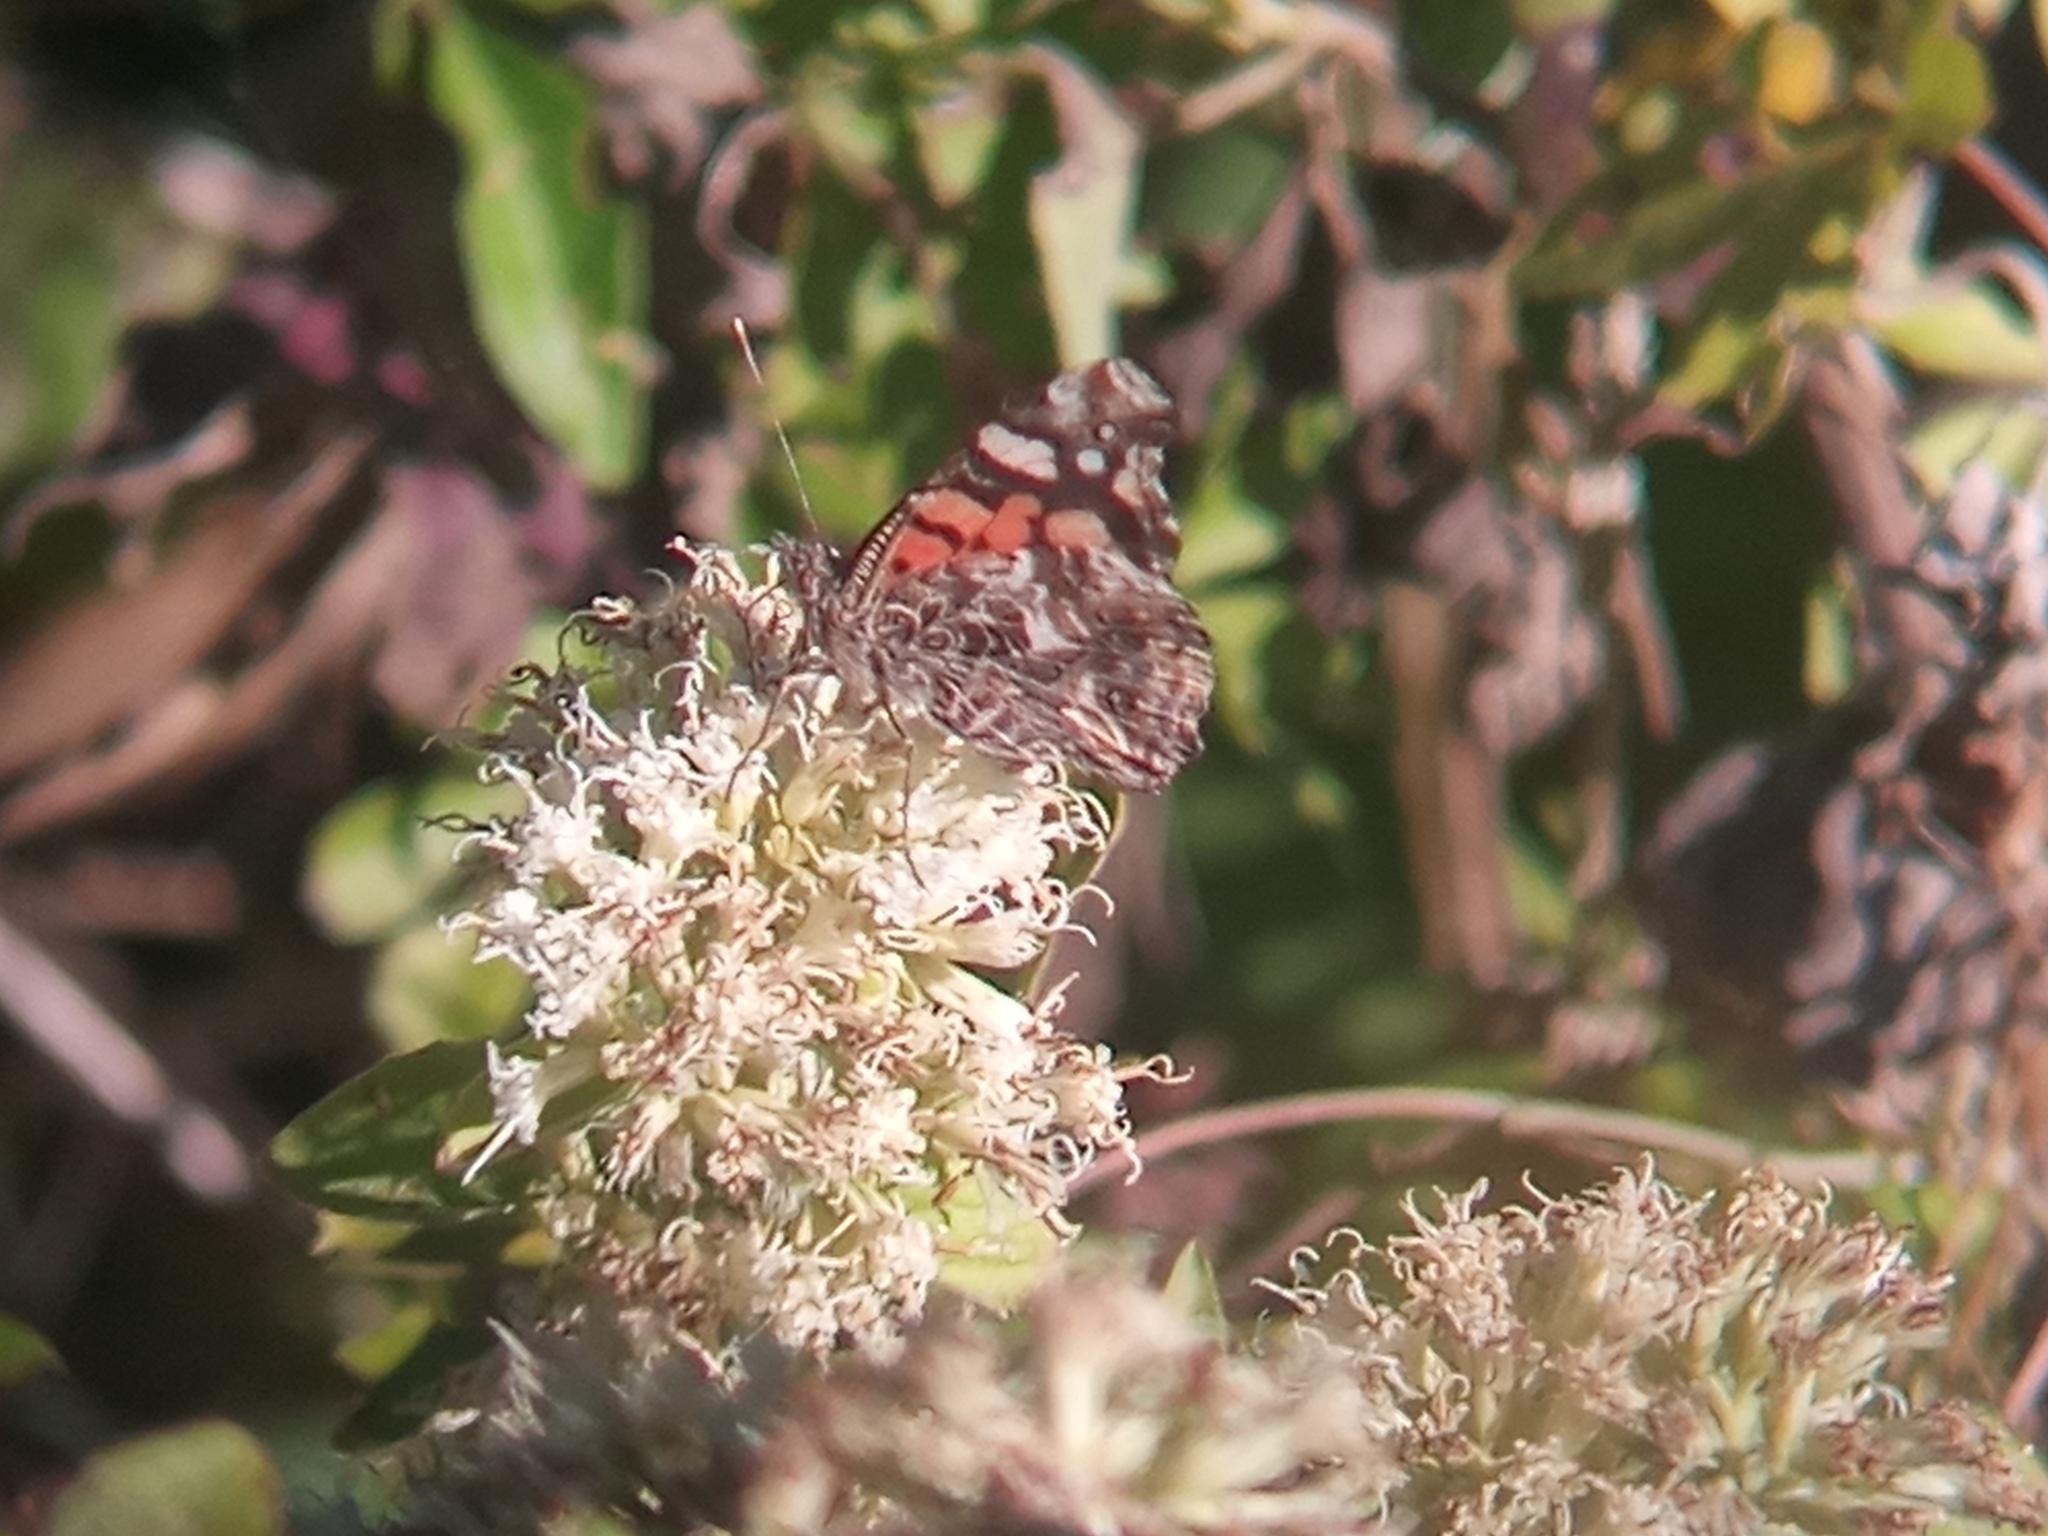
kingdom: Animalia
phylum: Arthropoda
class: Insecta
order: Lepidoptera
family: Nymphalidae
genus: Vanessa
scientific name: Vanessa carye
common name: Subtropical lady
